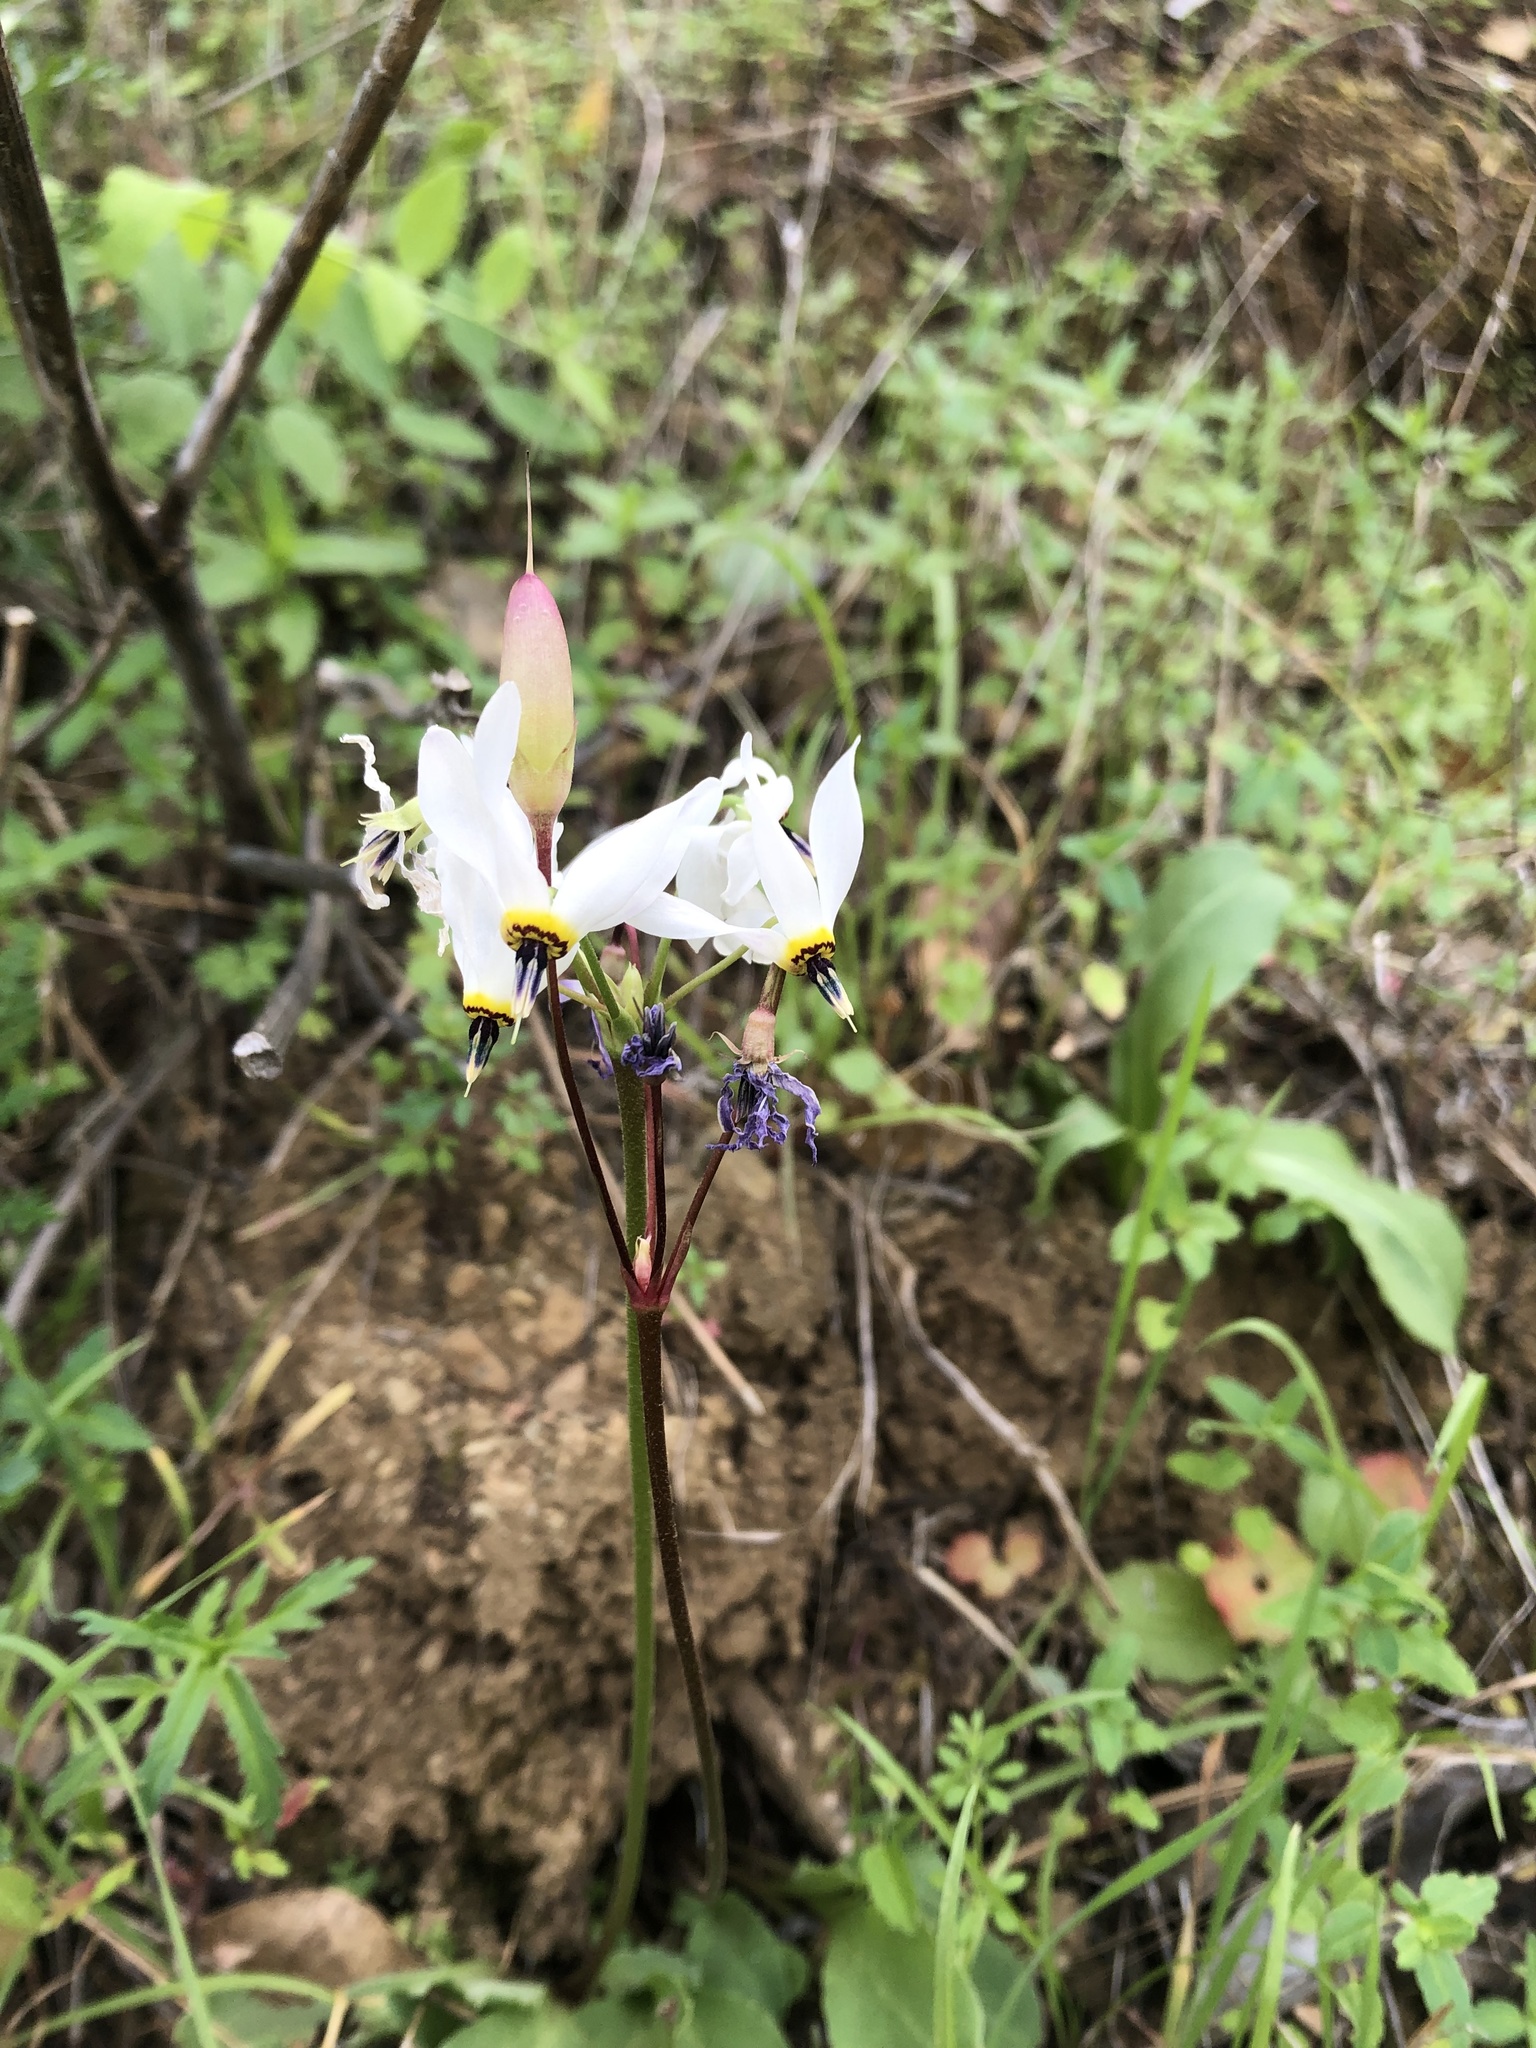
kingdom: Plantae
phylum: Tracheophyta
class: Magnoliopsida
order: Ericales
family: Primulaceae
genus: Dodecatheon
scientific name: Dodecatheon clevelandii
